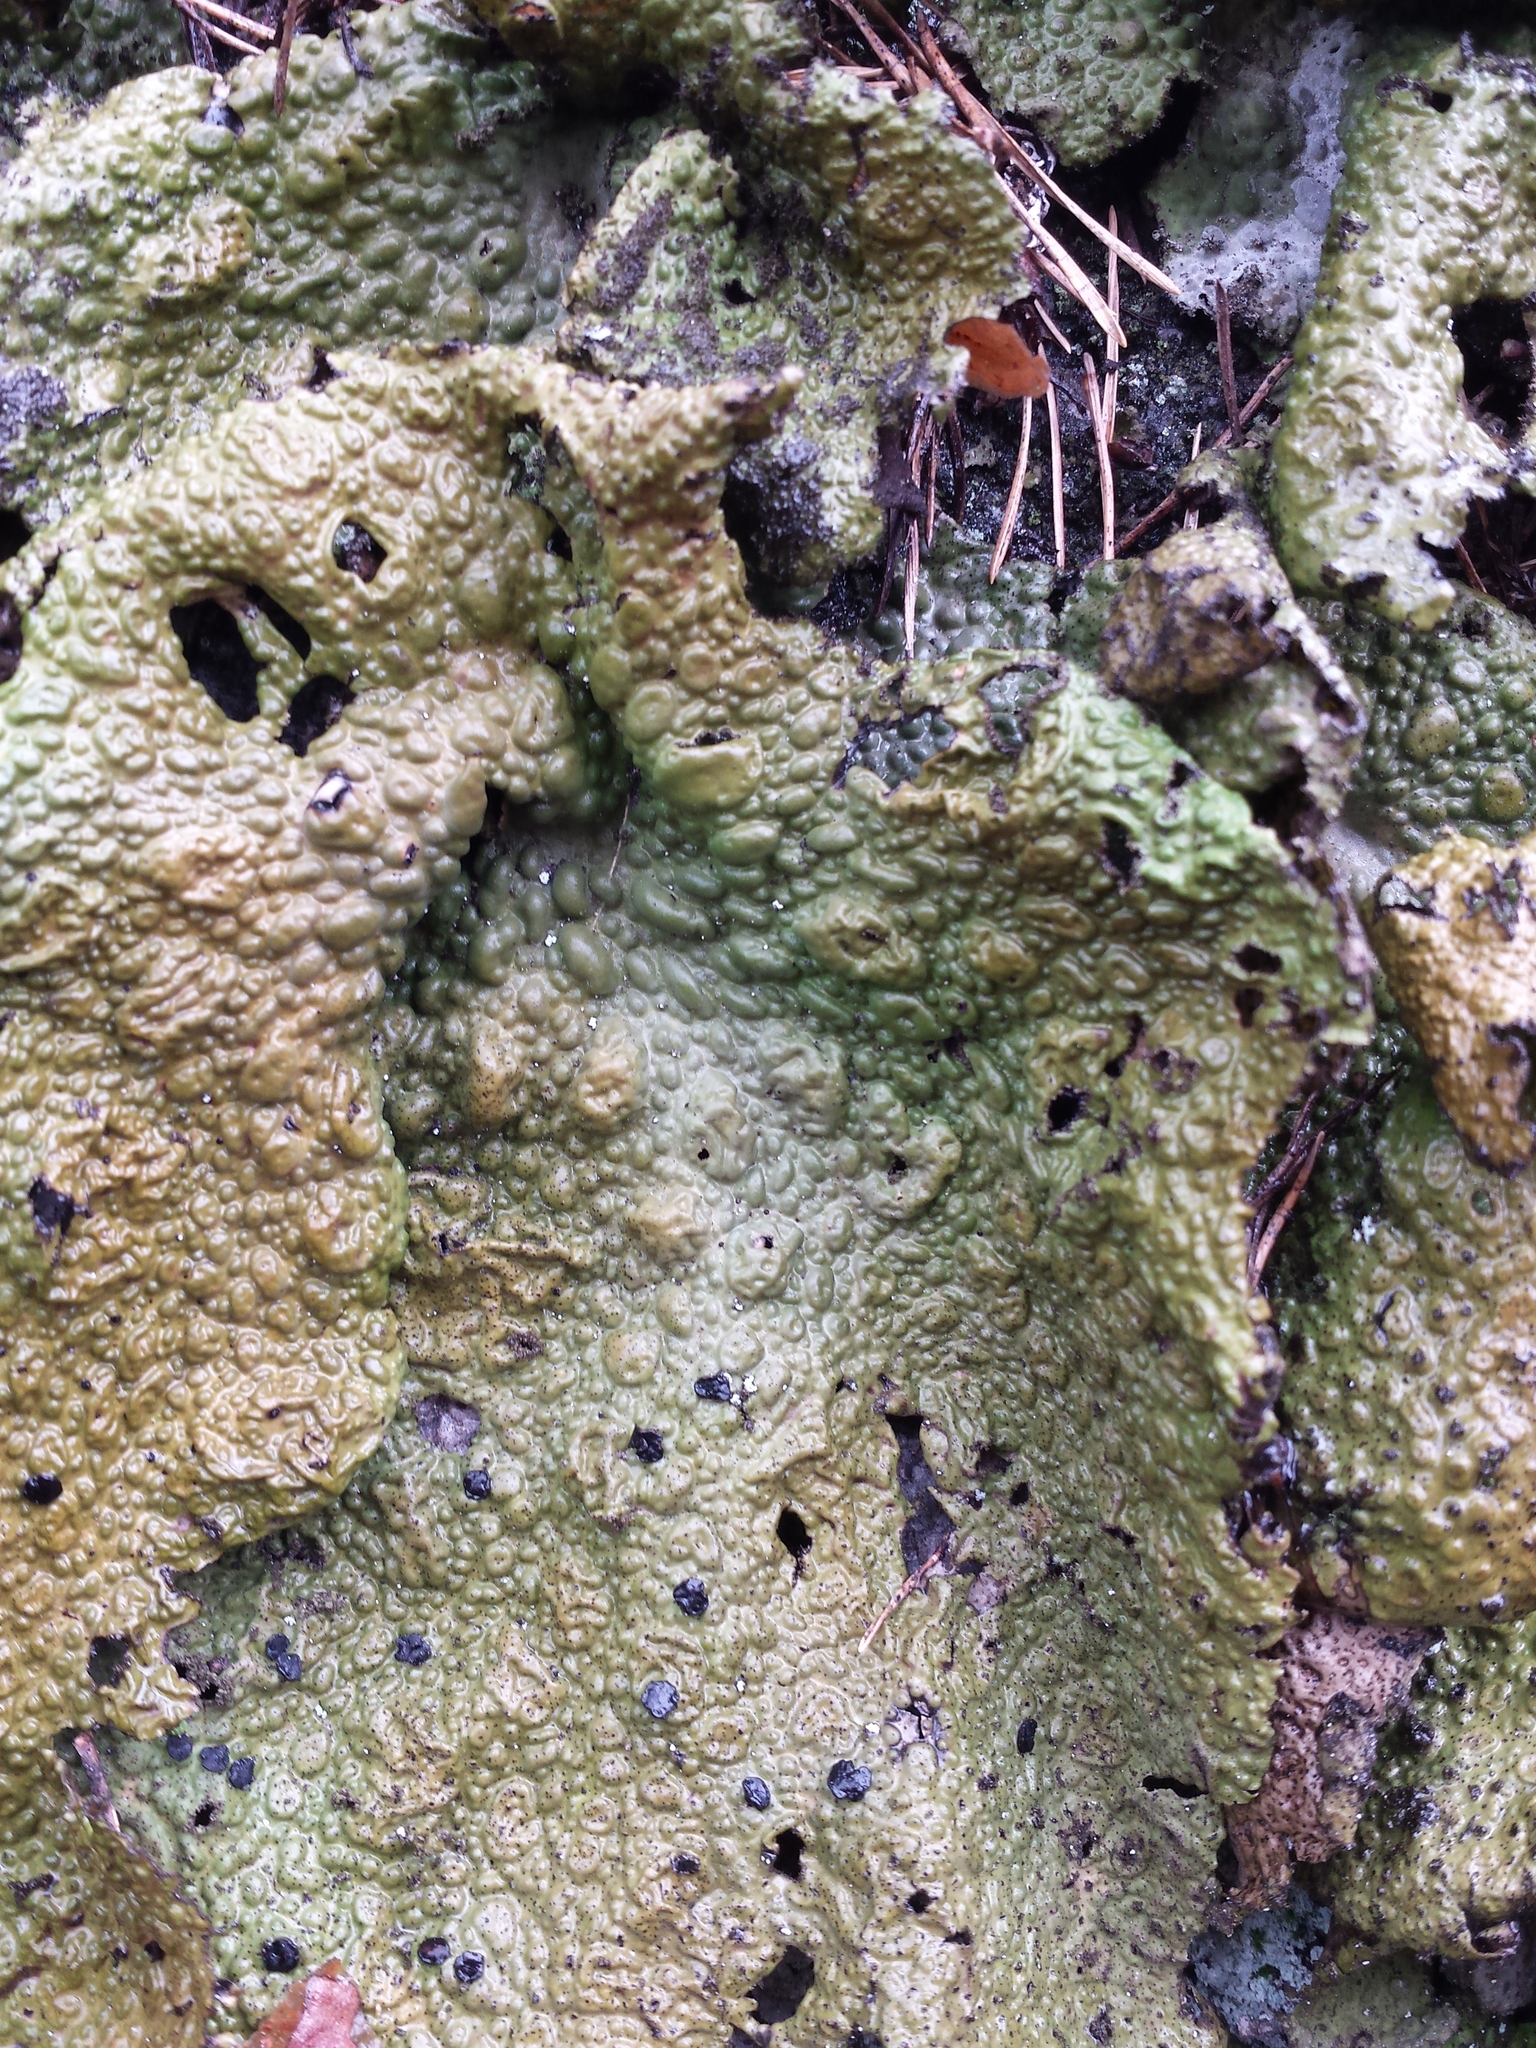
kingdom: Fungi
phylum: Ascomycota
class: Lecanoromycetes
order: Umbilicariales
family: Umbilicariaceae
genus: Lasallia
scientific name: Lasallia pustulata
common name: Blistered toadskin lichen
